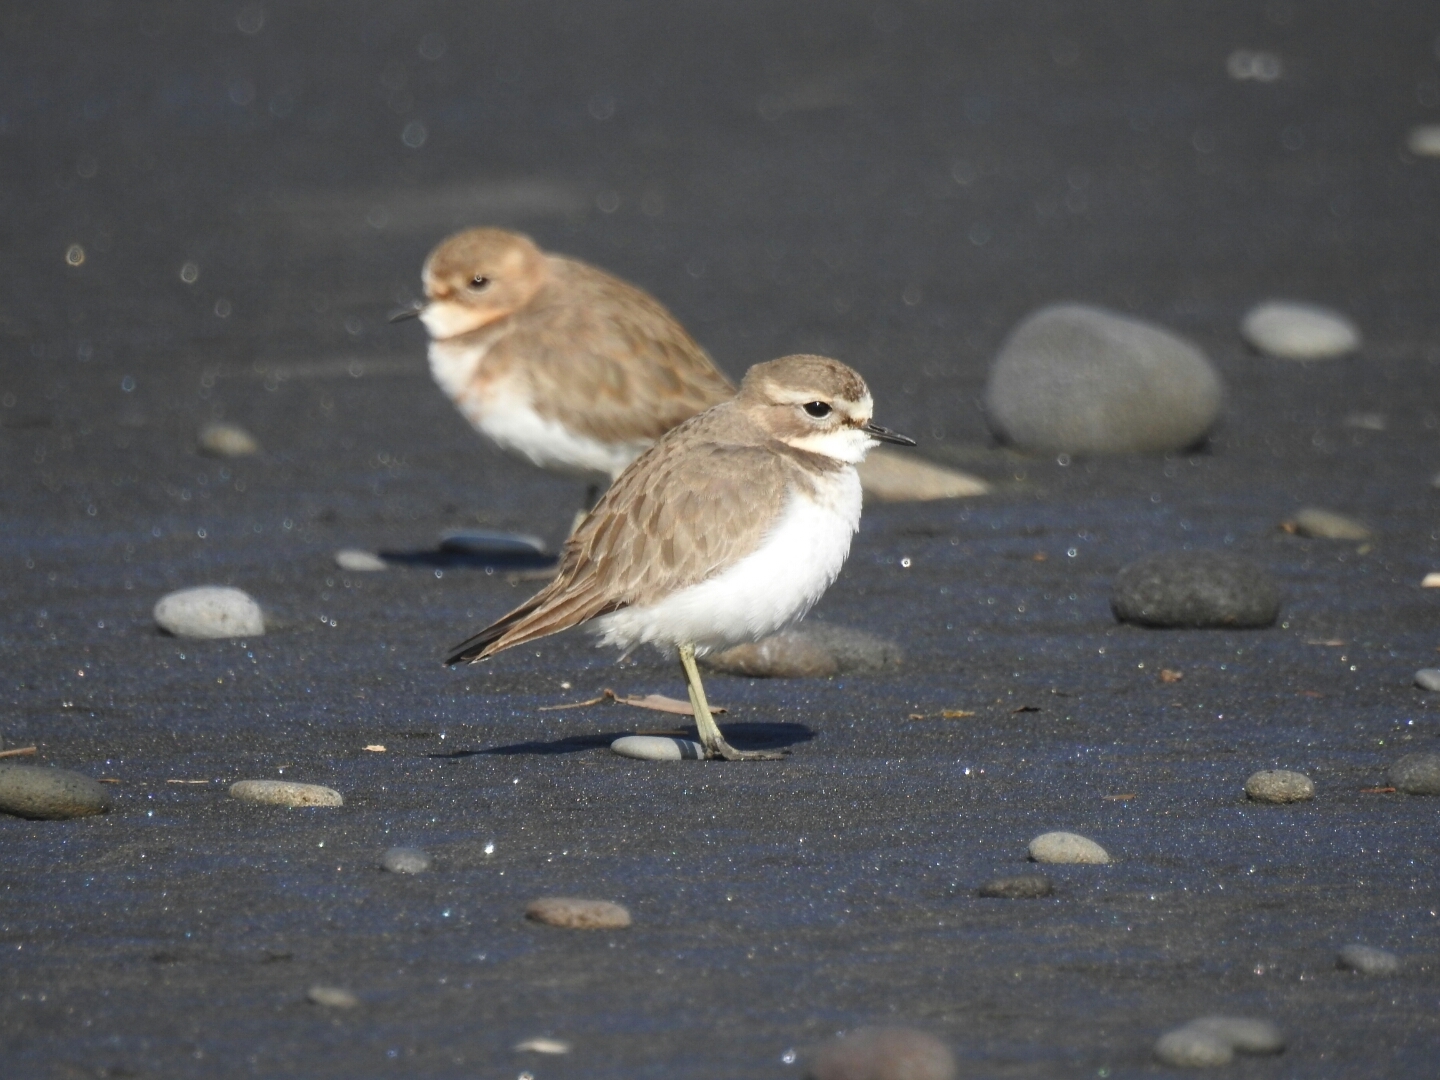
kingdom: Animalia
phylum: Chordata
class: Aves
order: Charadriiformes
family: Charadriidae
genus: Anarhynchus
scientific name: Anarhynchus
